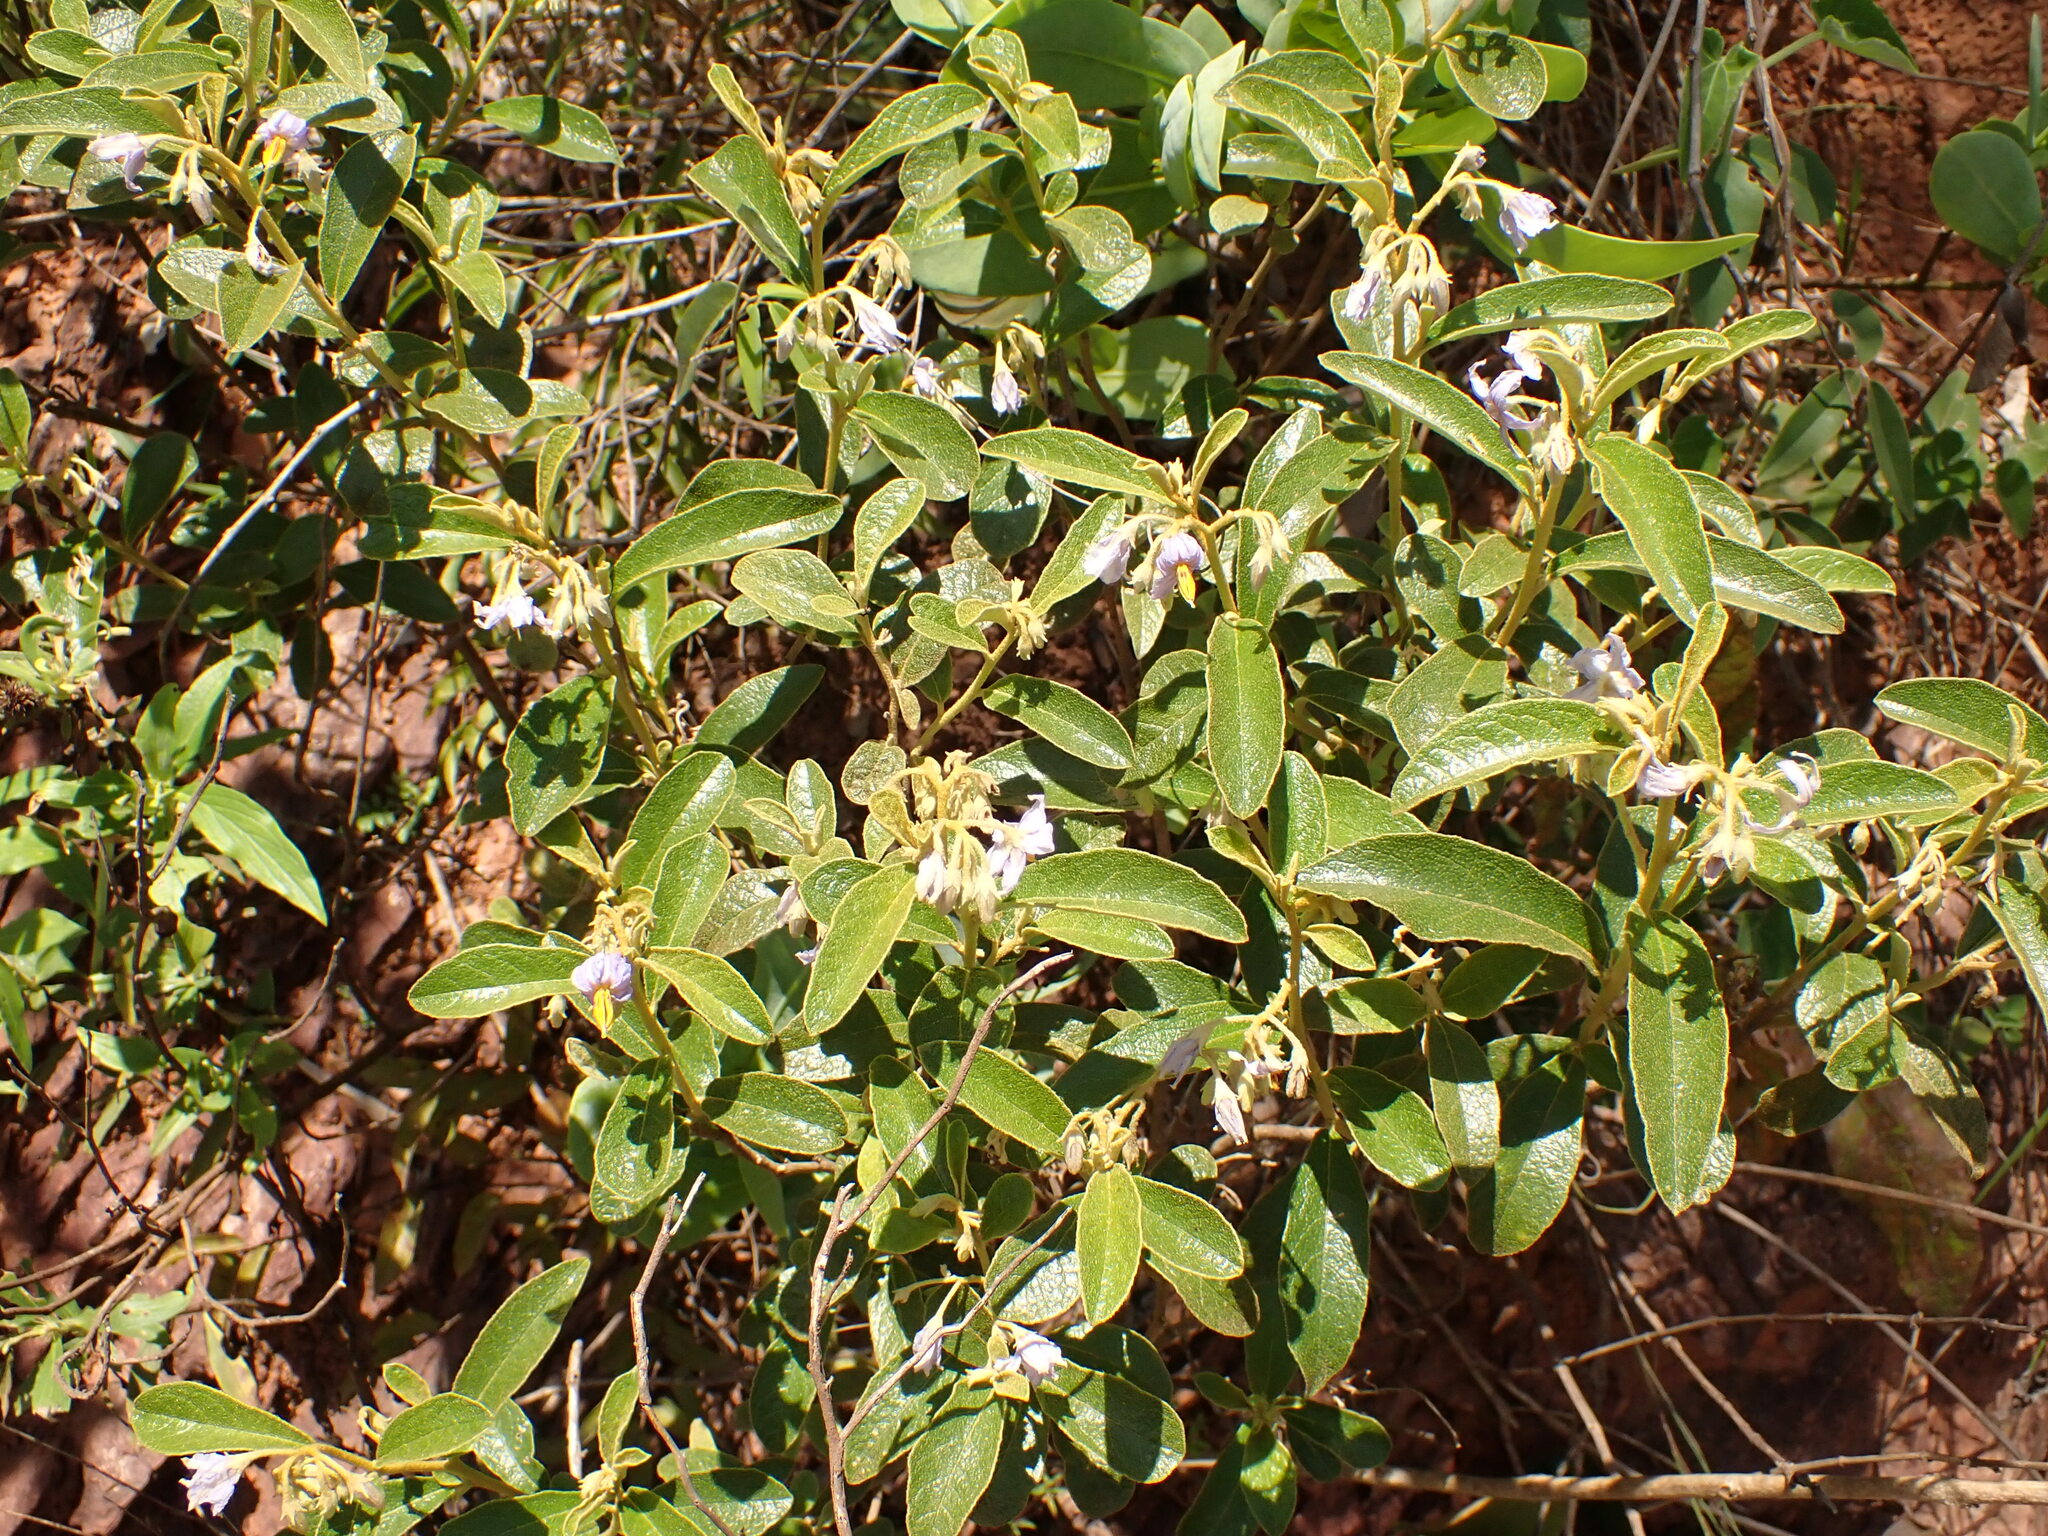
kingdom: Plantae
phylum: Tracheophyta
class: Magnoliopsida
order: Solanales
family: Solanaceae
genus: Solanum
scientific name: Solanum subumbellatum
